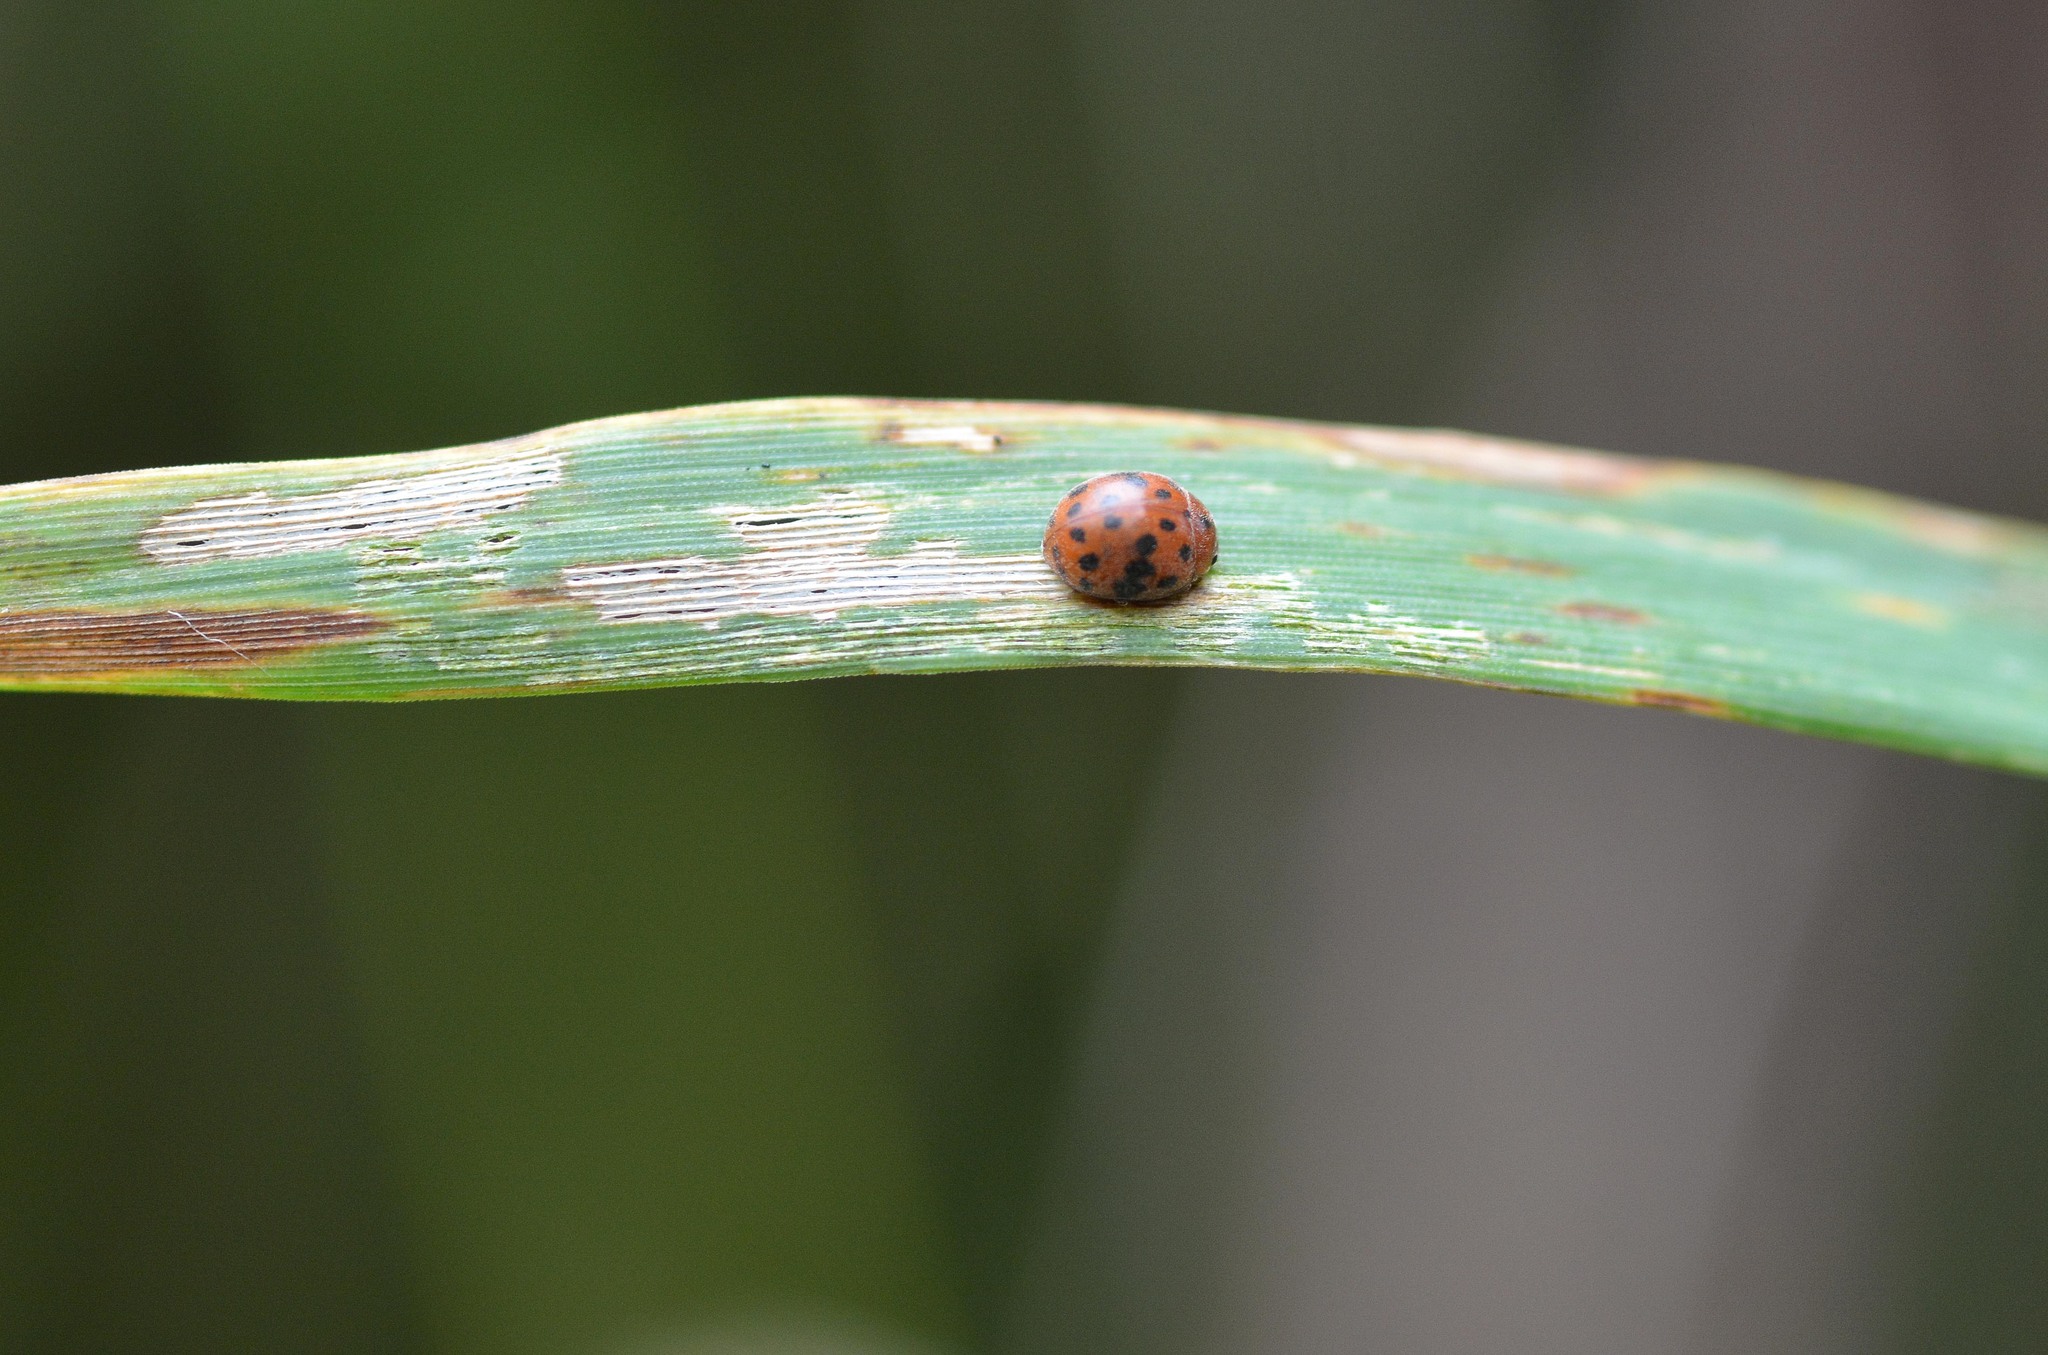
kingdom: Animalia
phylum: Arthropoda
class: Insecta
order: Coleoptera
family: Coccinellidae
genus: Subcoccinella
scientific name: Subcoccinella vigintiquatuorpunctata
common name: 24-spot ladybird
